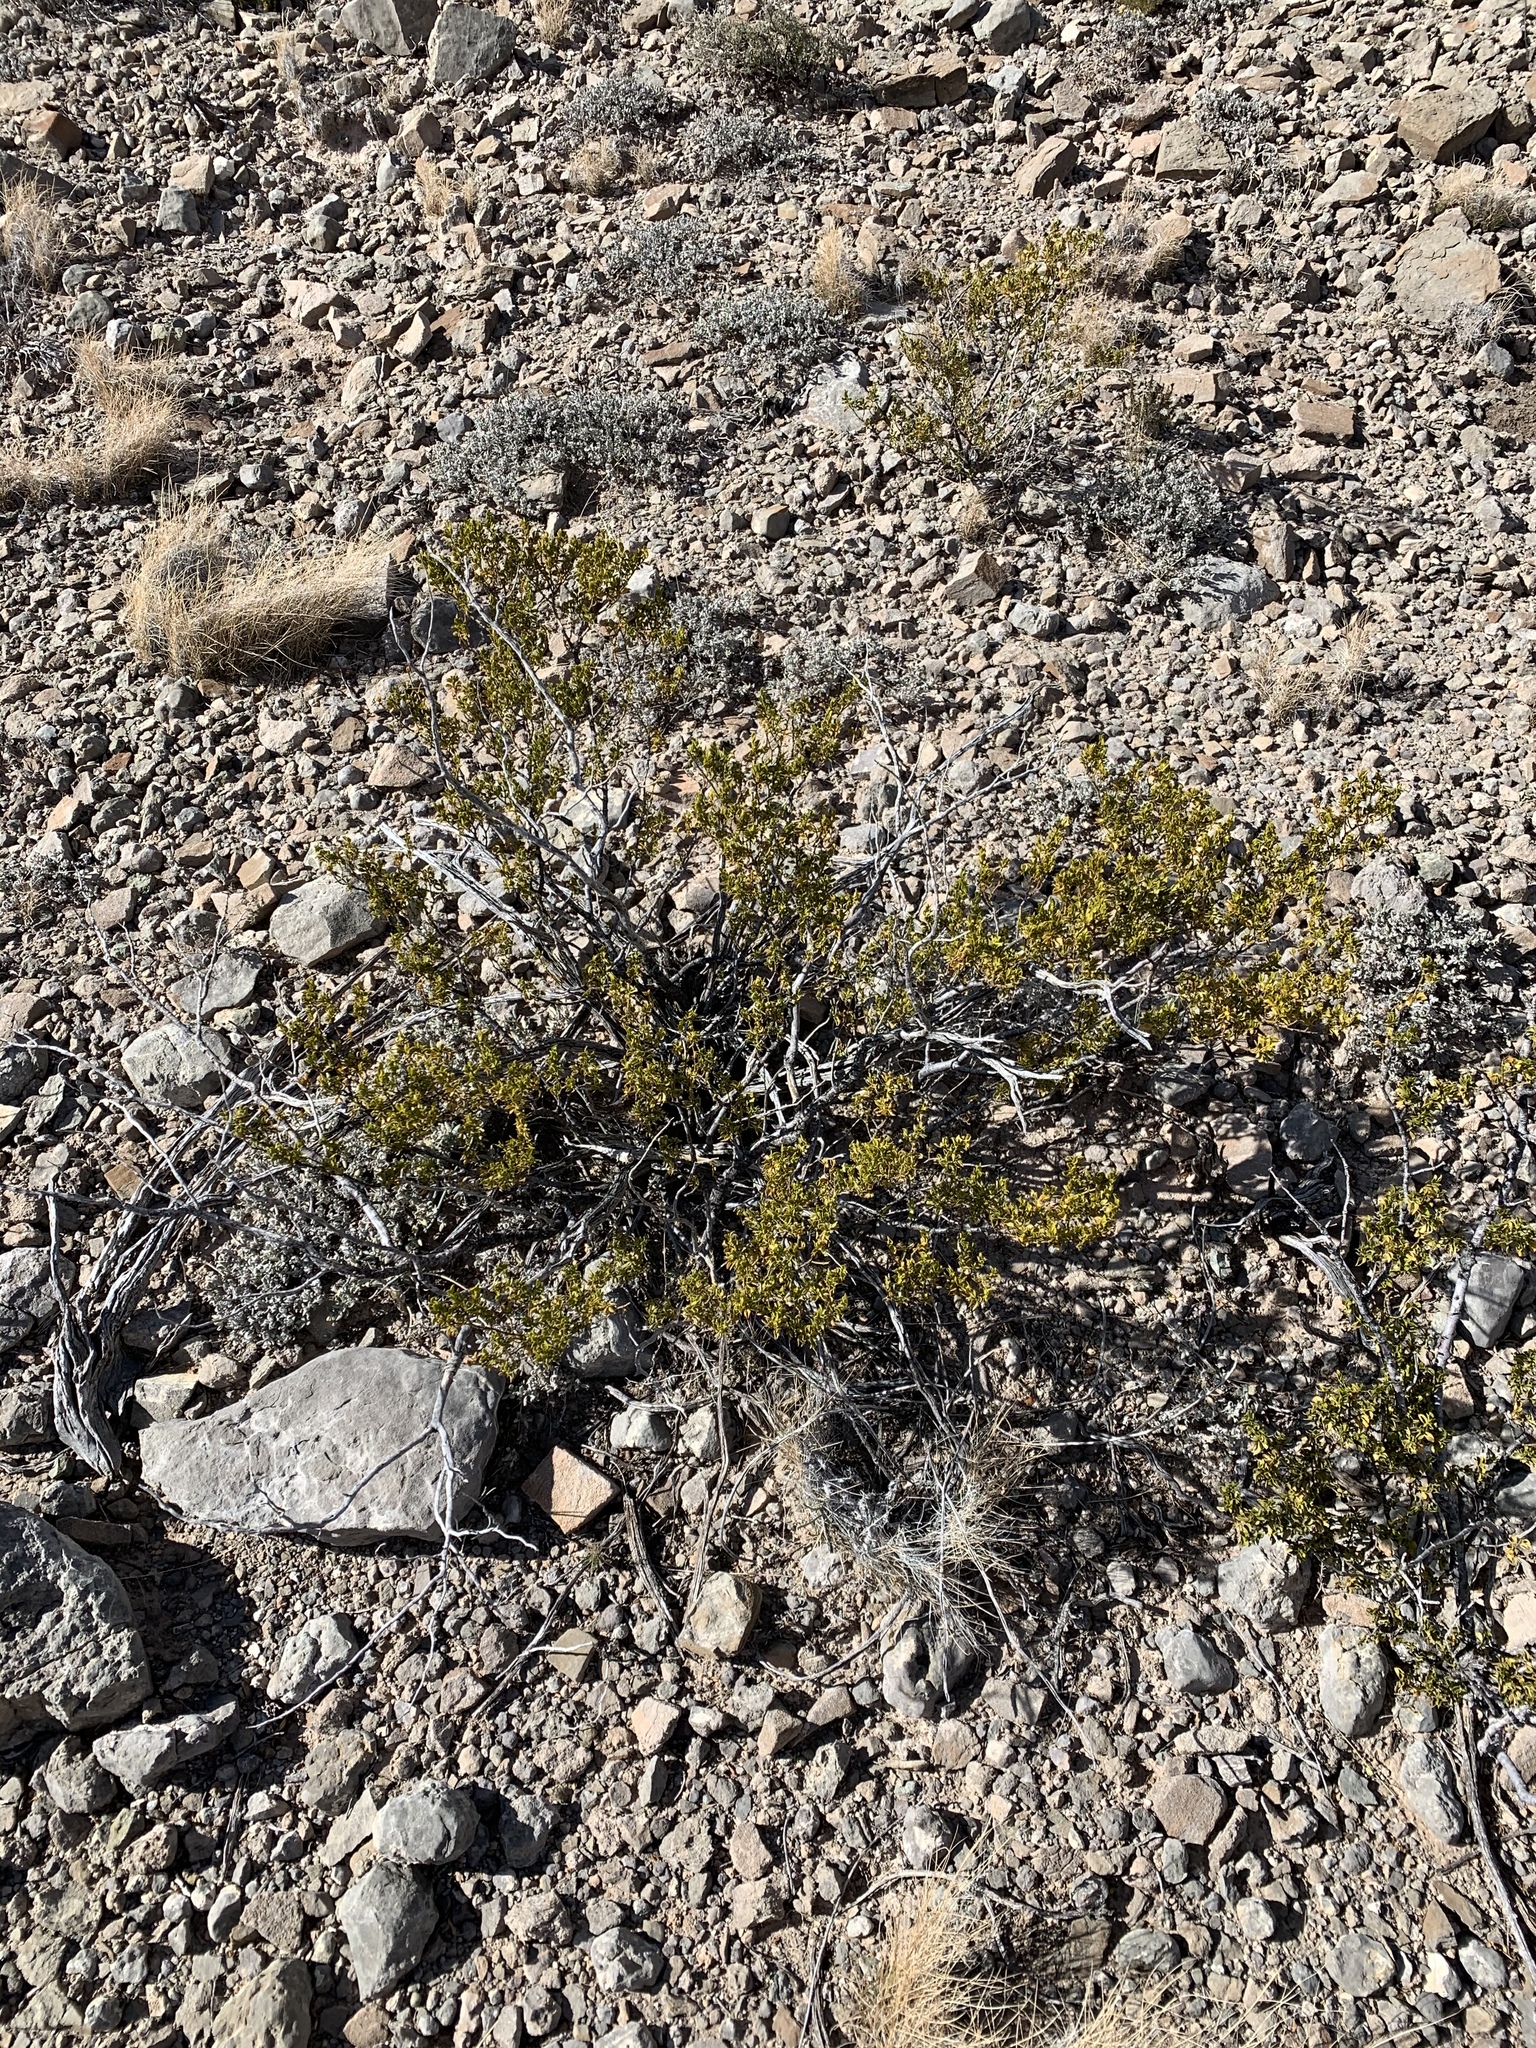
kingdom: Plantae
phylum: Tracheophyta
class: Magnoliopsida
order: Zygophyllales
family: Zygophyllaceae
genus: Larrea
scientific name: Larrea tridentata
